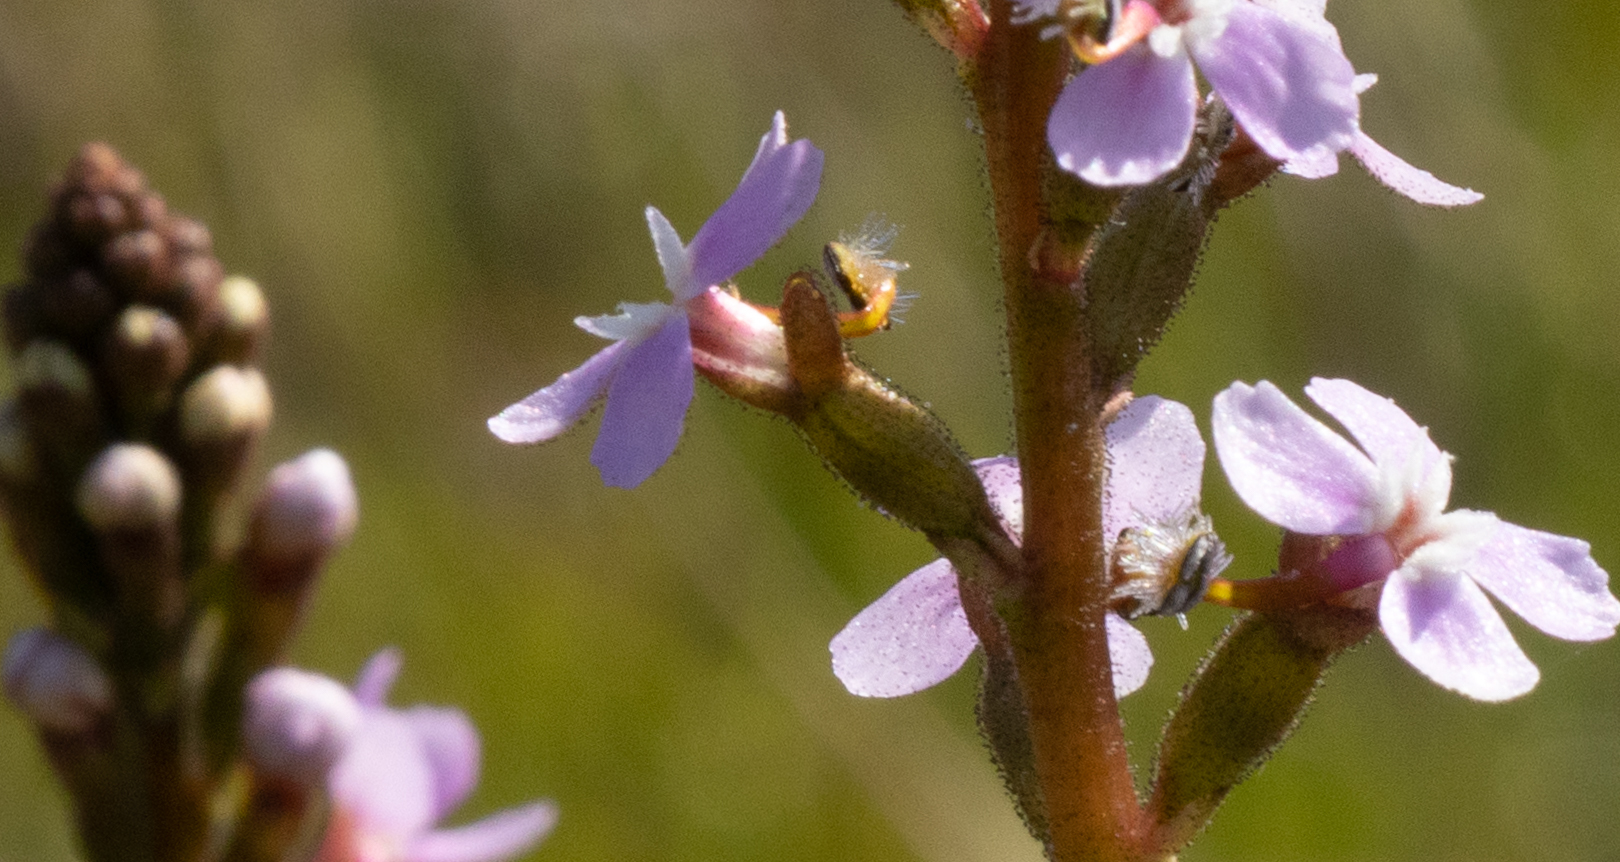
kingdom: Plantae
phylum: Tracheophyta
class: Magnoliopsida
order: Asterales
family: Stylidiaceae
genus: Stylidium
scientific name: Stylidium graminifolium
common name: Grass triggerplant
